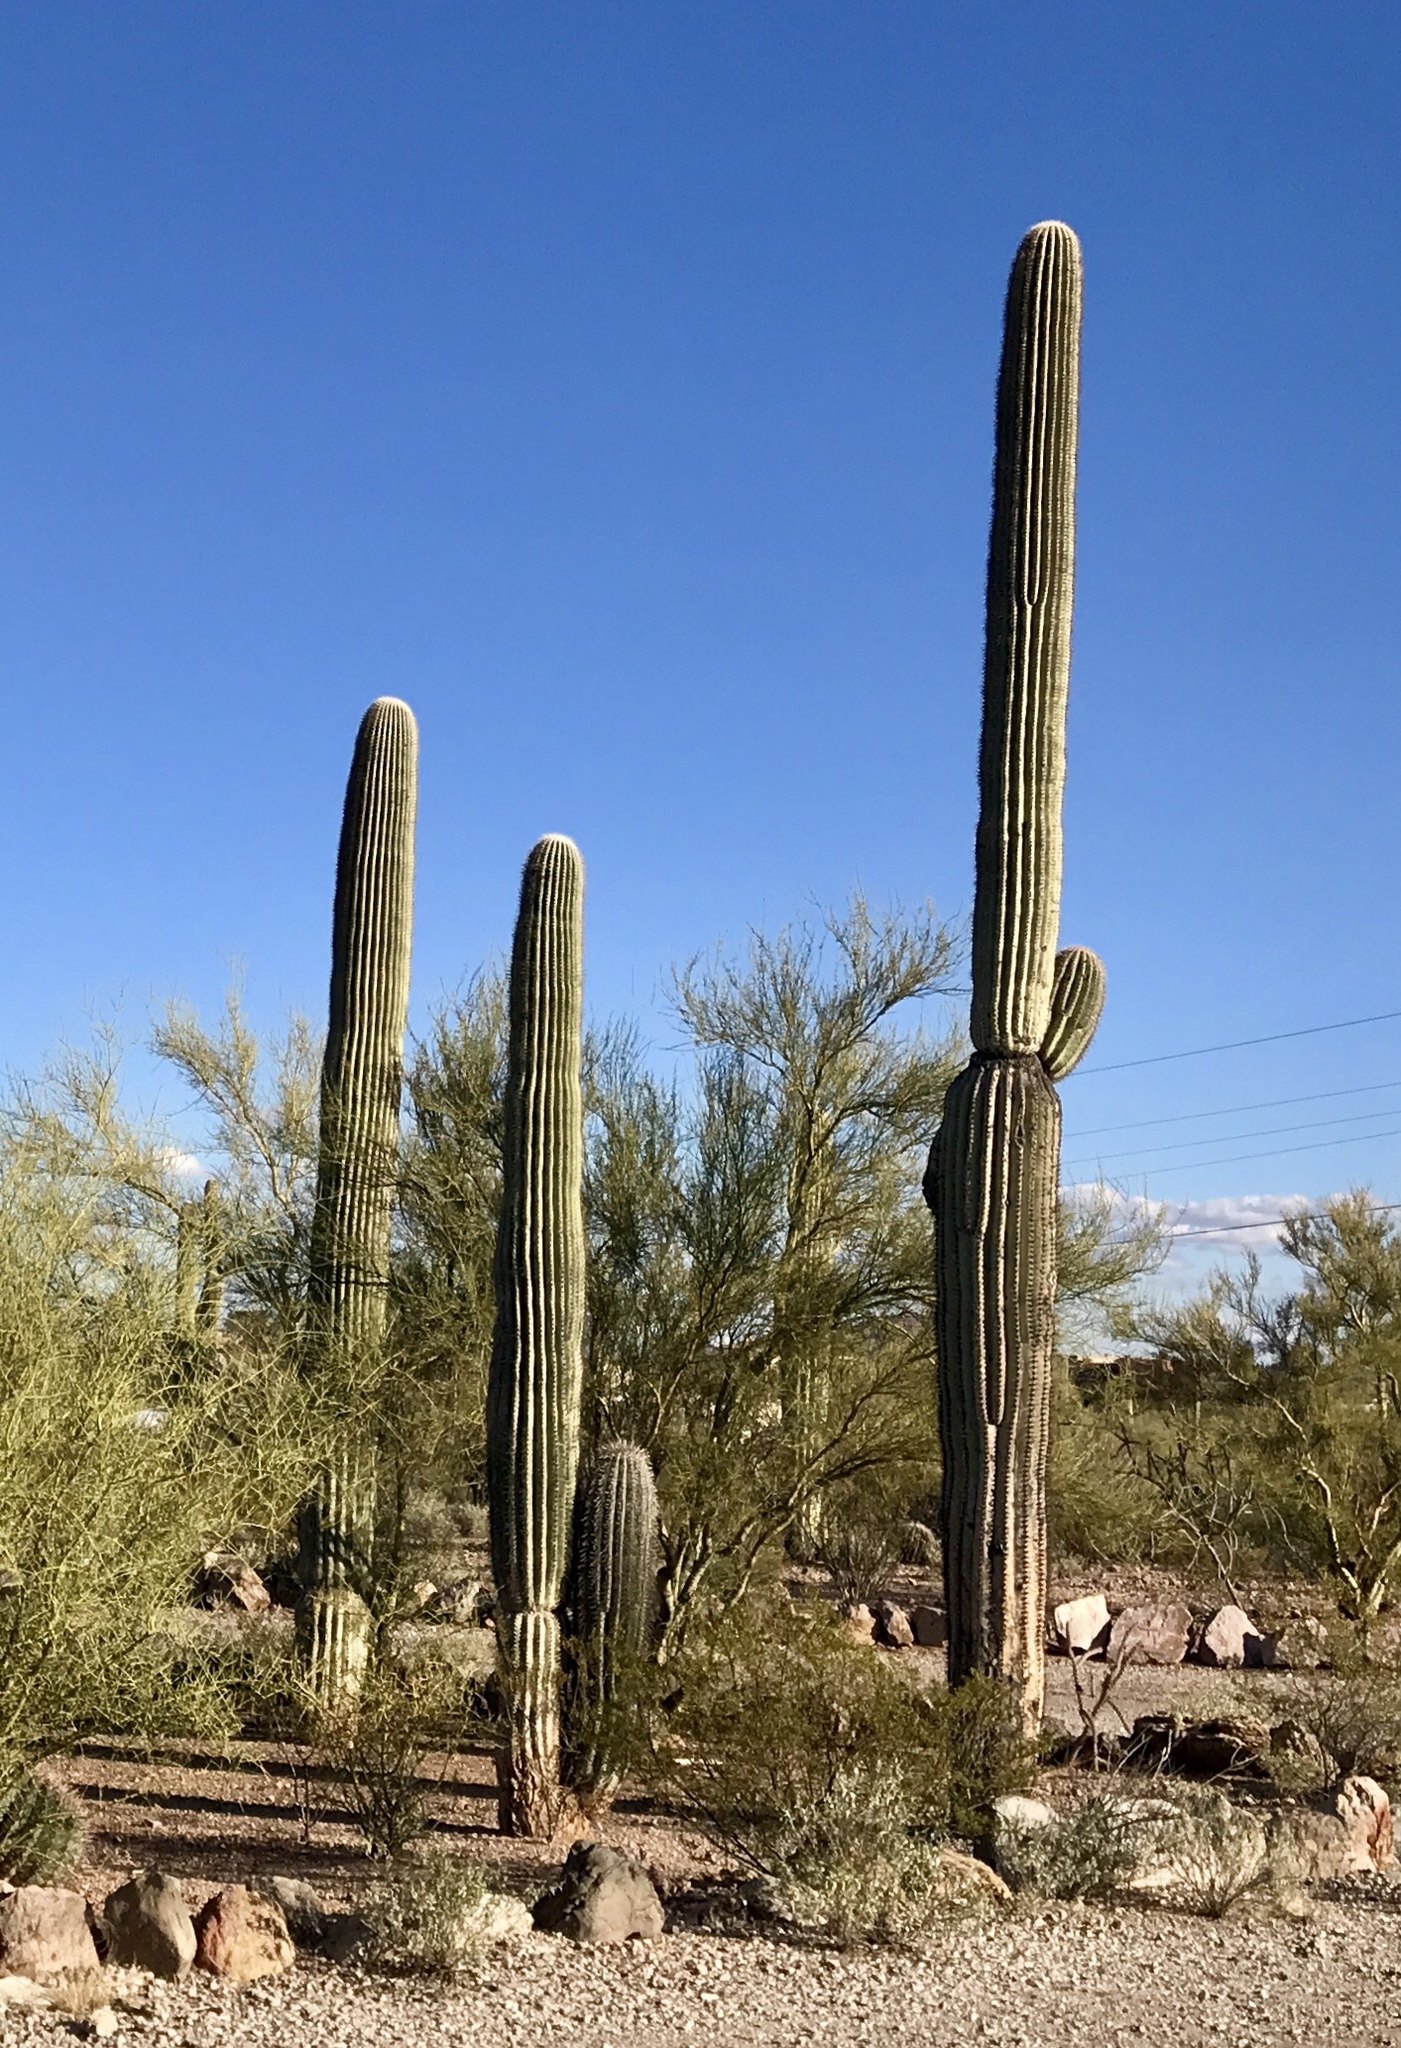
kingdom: Plantae
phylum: Tracheophyta
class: Magnoliopsida
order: Caryophyllales
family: Cactaceae
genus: Carnegiea
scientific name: Carnegiea gigantea
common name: Saguaro
